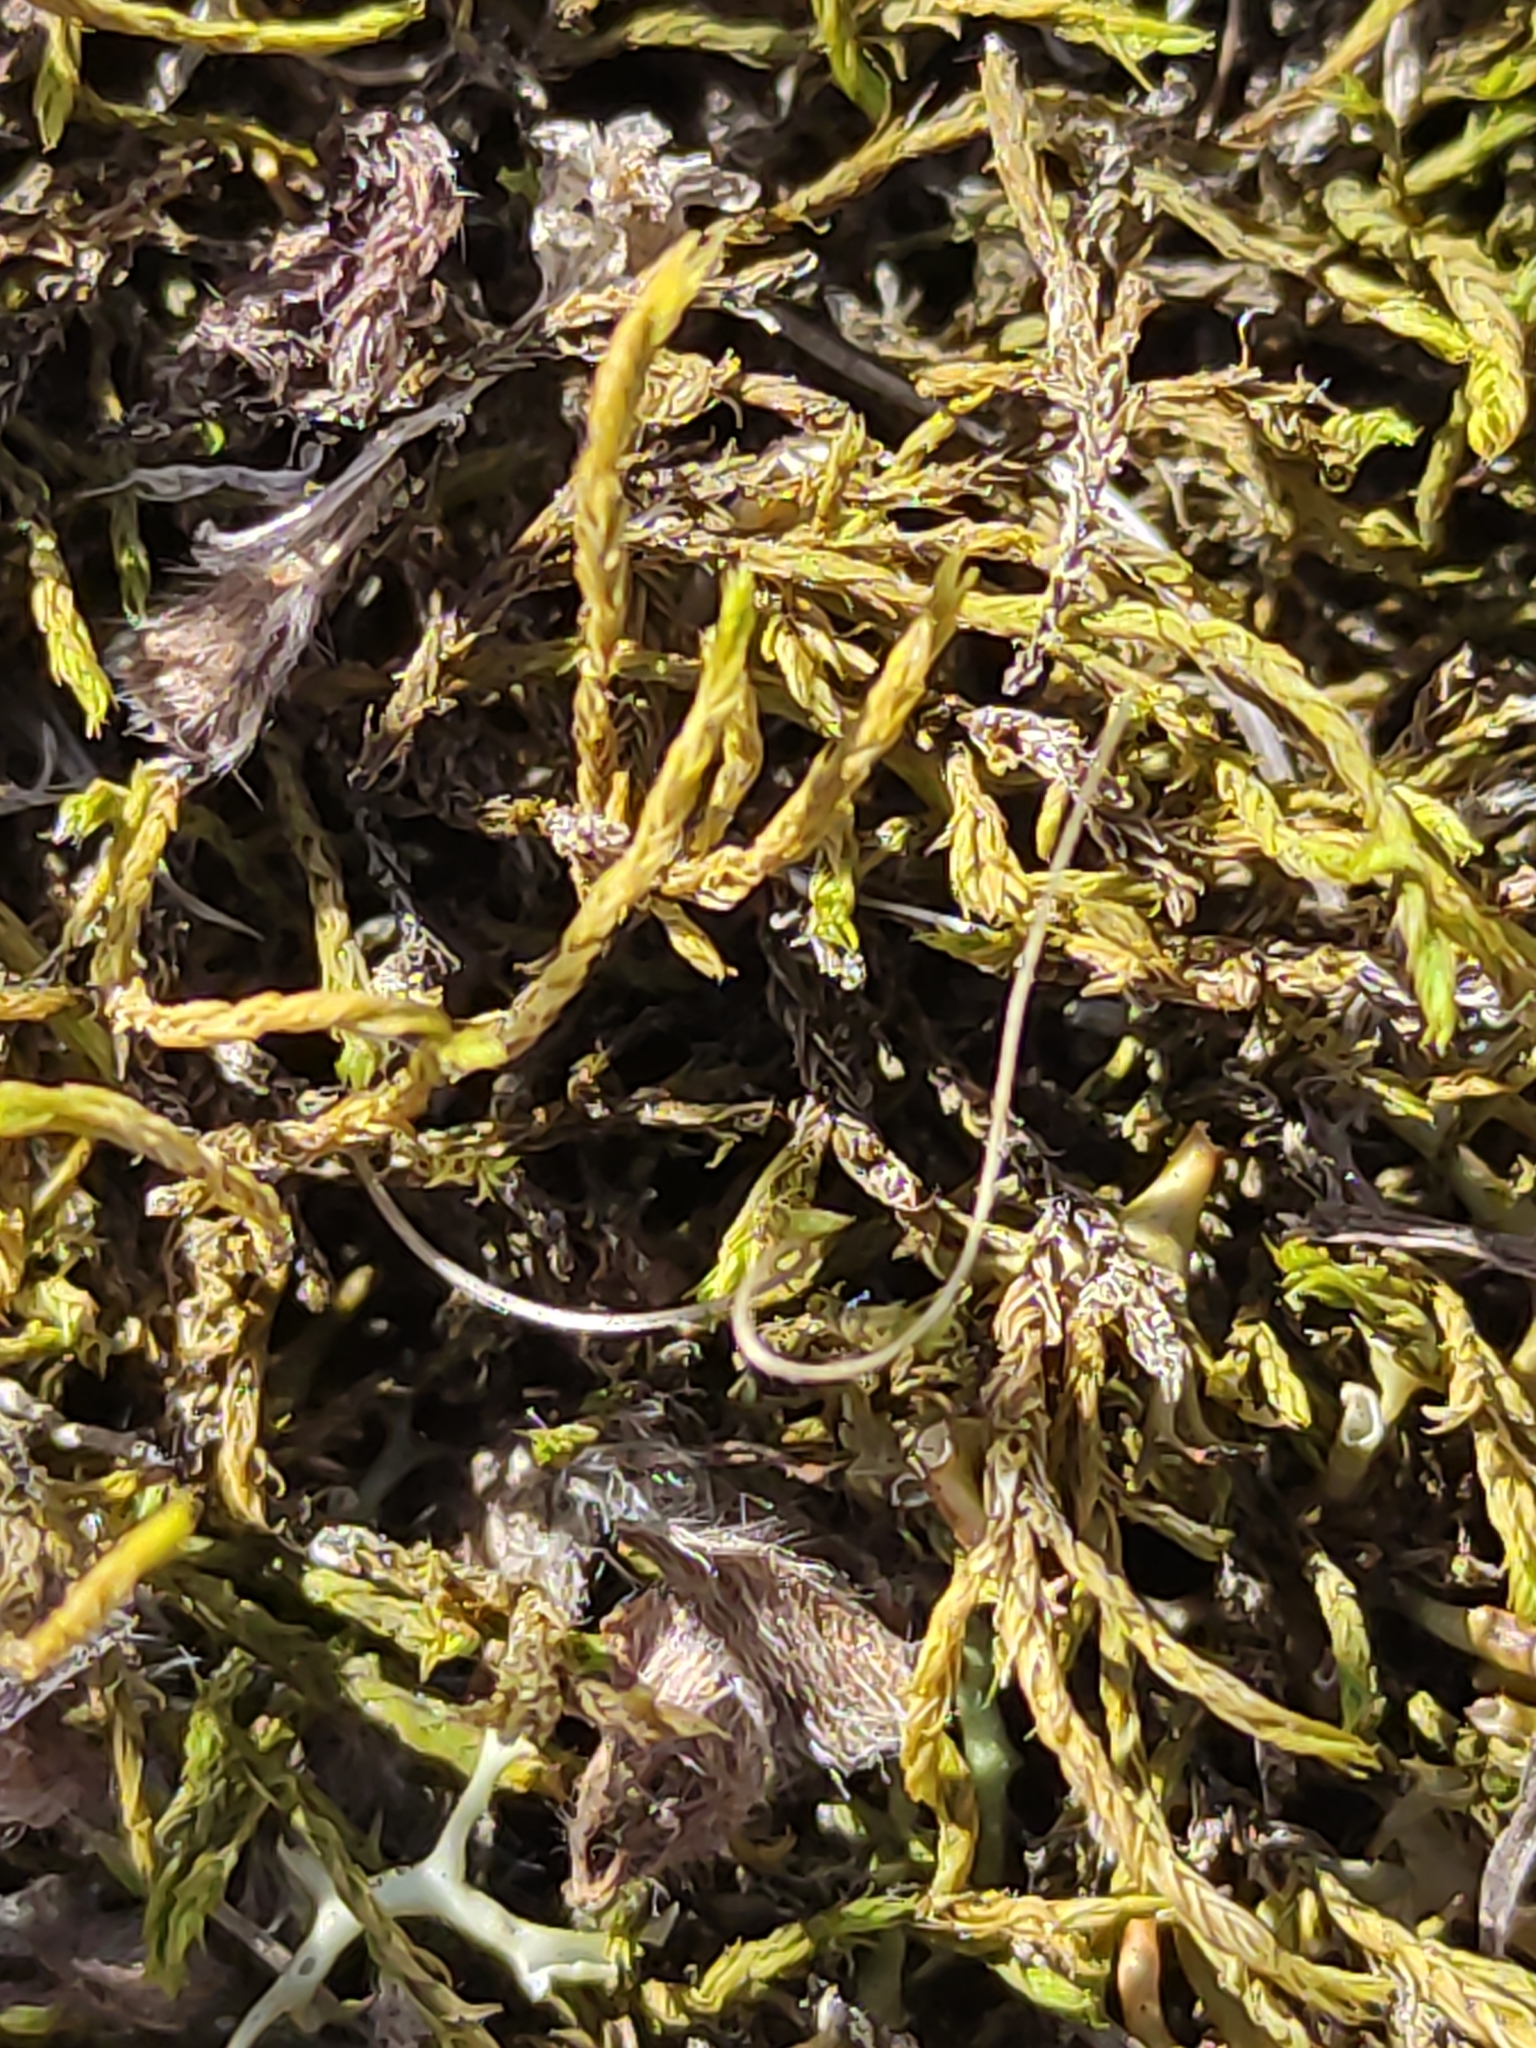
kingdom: Plantae
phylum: Bryophyta
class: Bryopsida
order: Pottiales
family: Pottiaceae
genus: Triquetrella
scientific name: Triquetrella papillata
